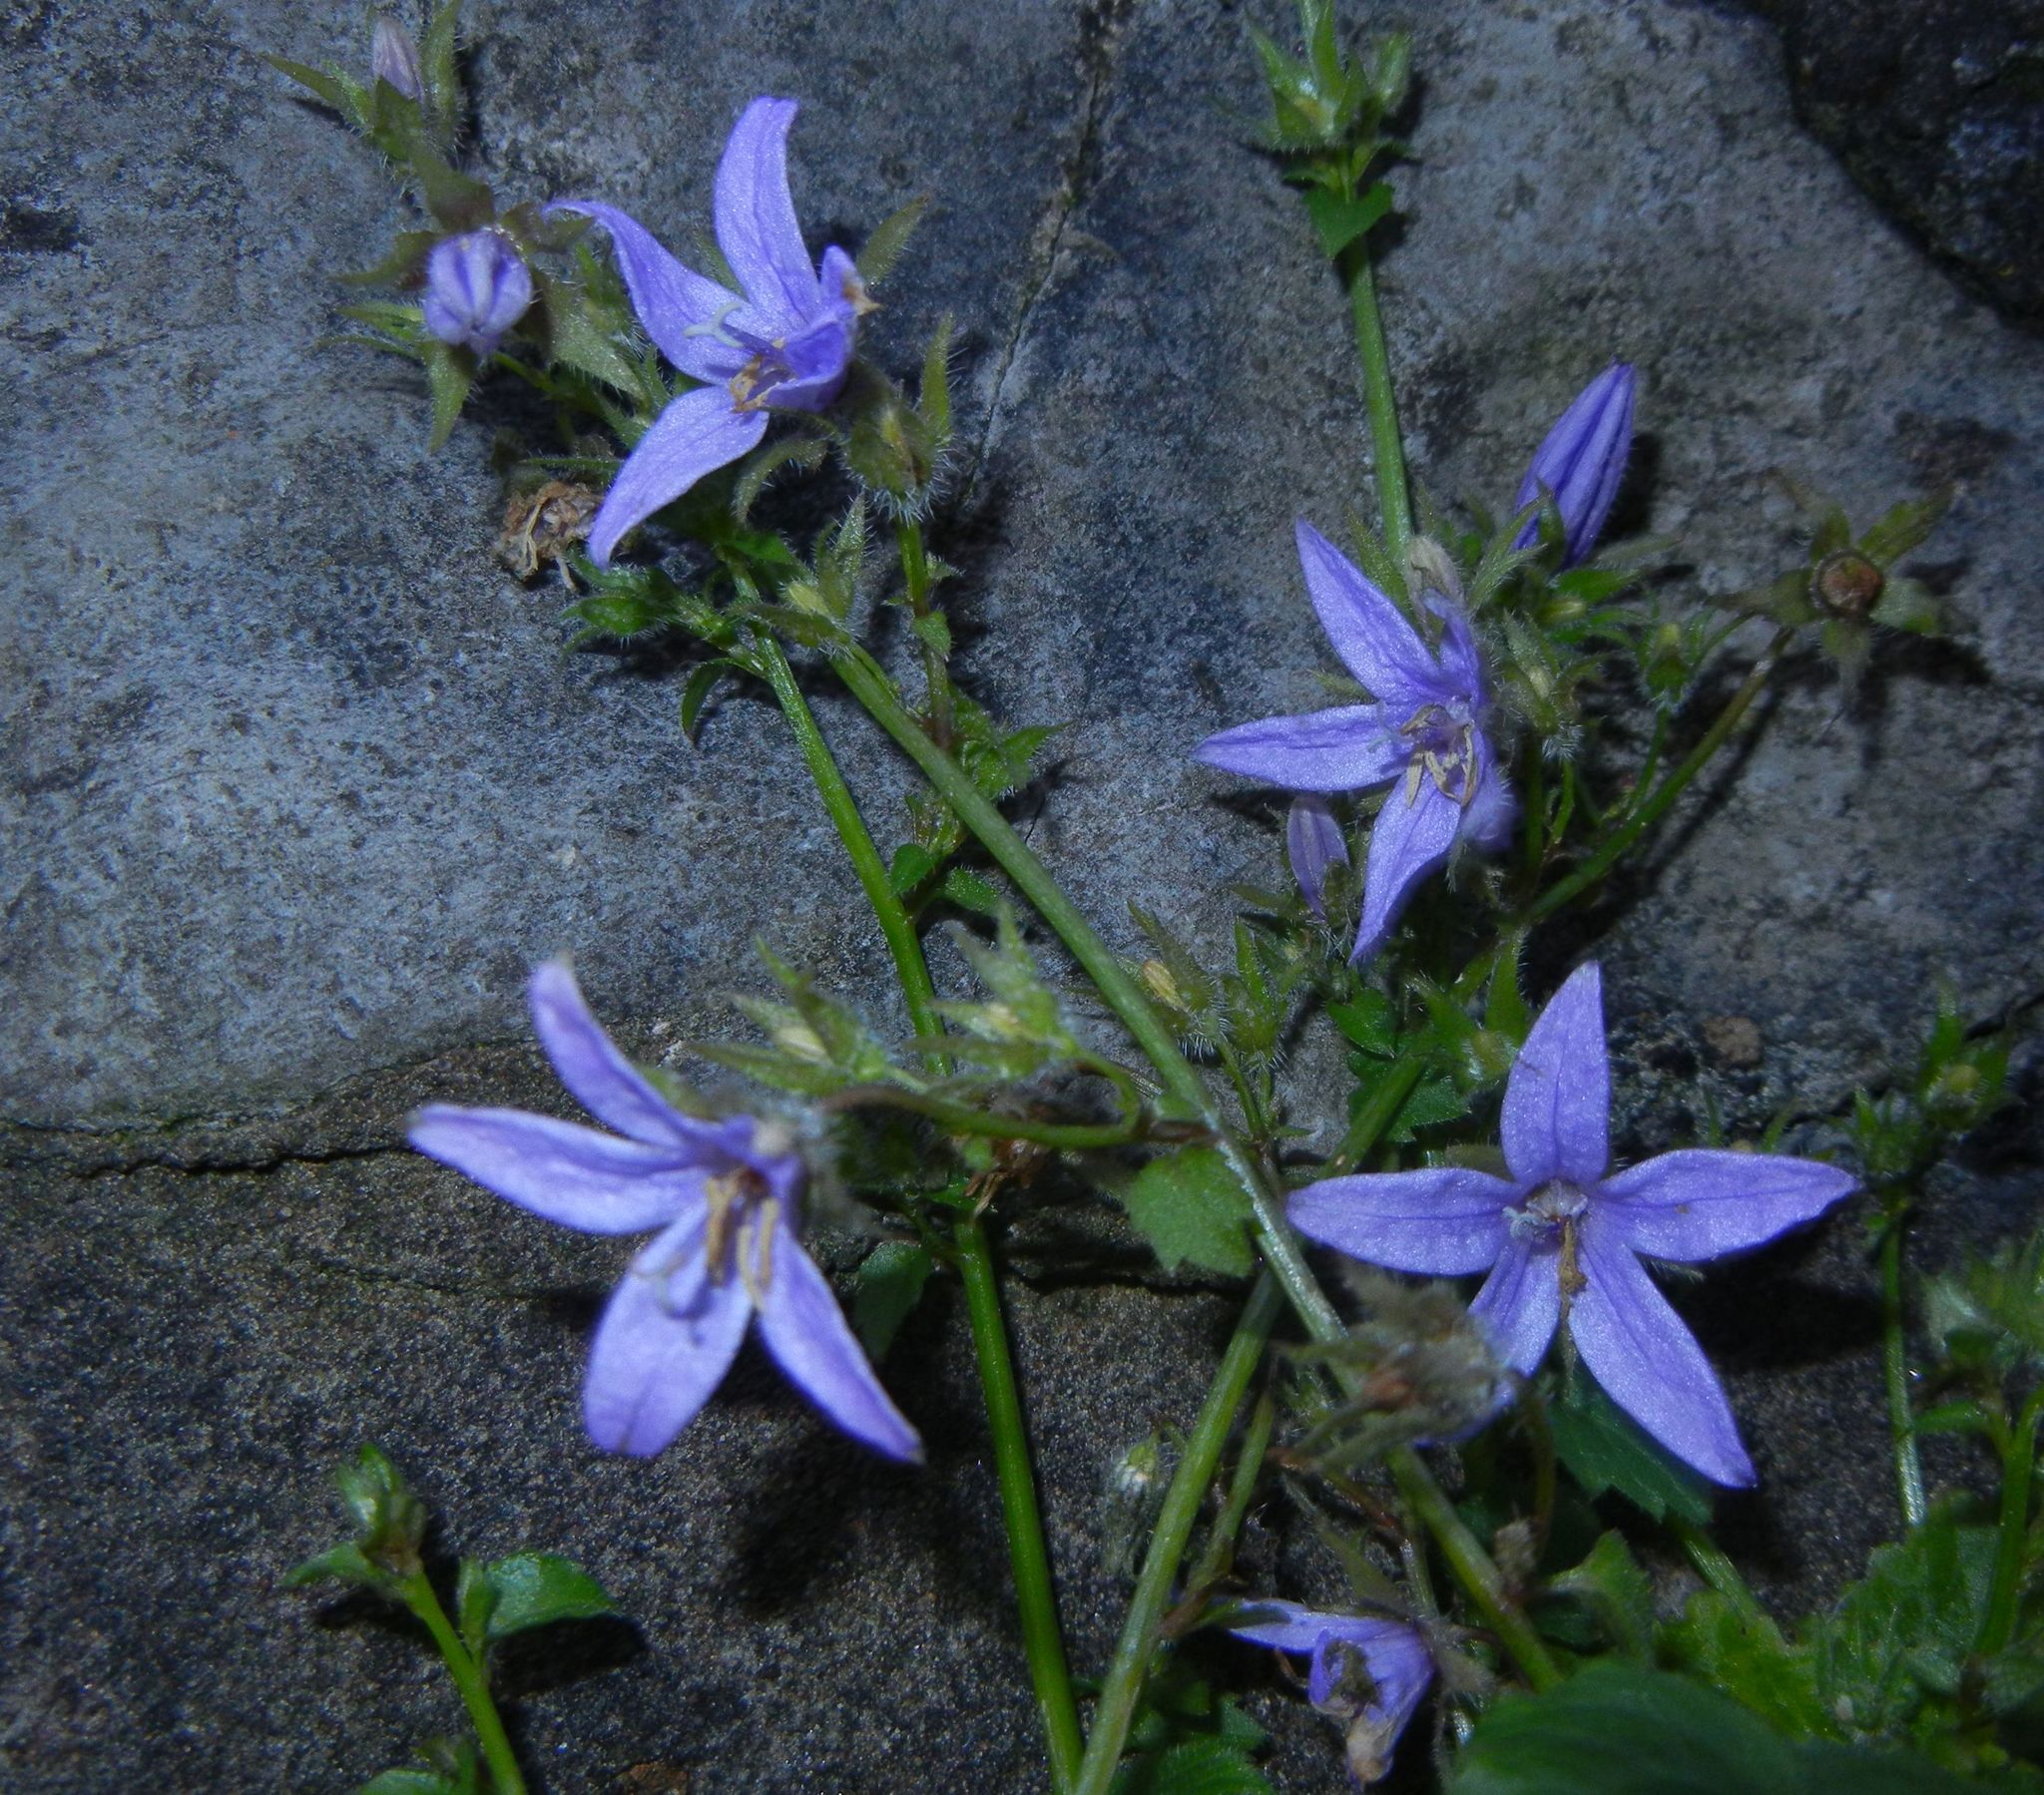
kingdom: Plantae
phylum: Tracheophyta
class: Magnoliopsida
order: Asterales
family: Campanulaceae
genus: Campanula
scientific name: Campanula poscharskyana
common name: Trailing bellflower
